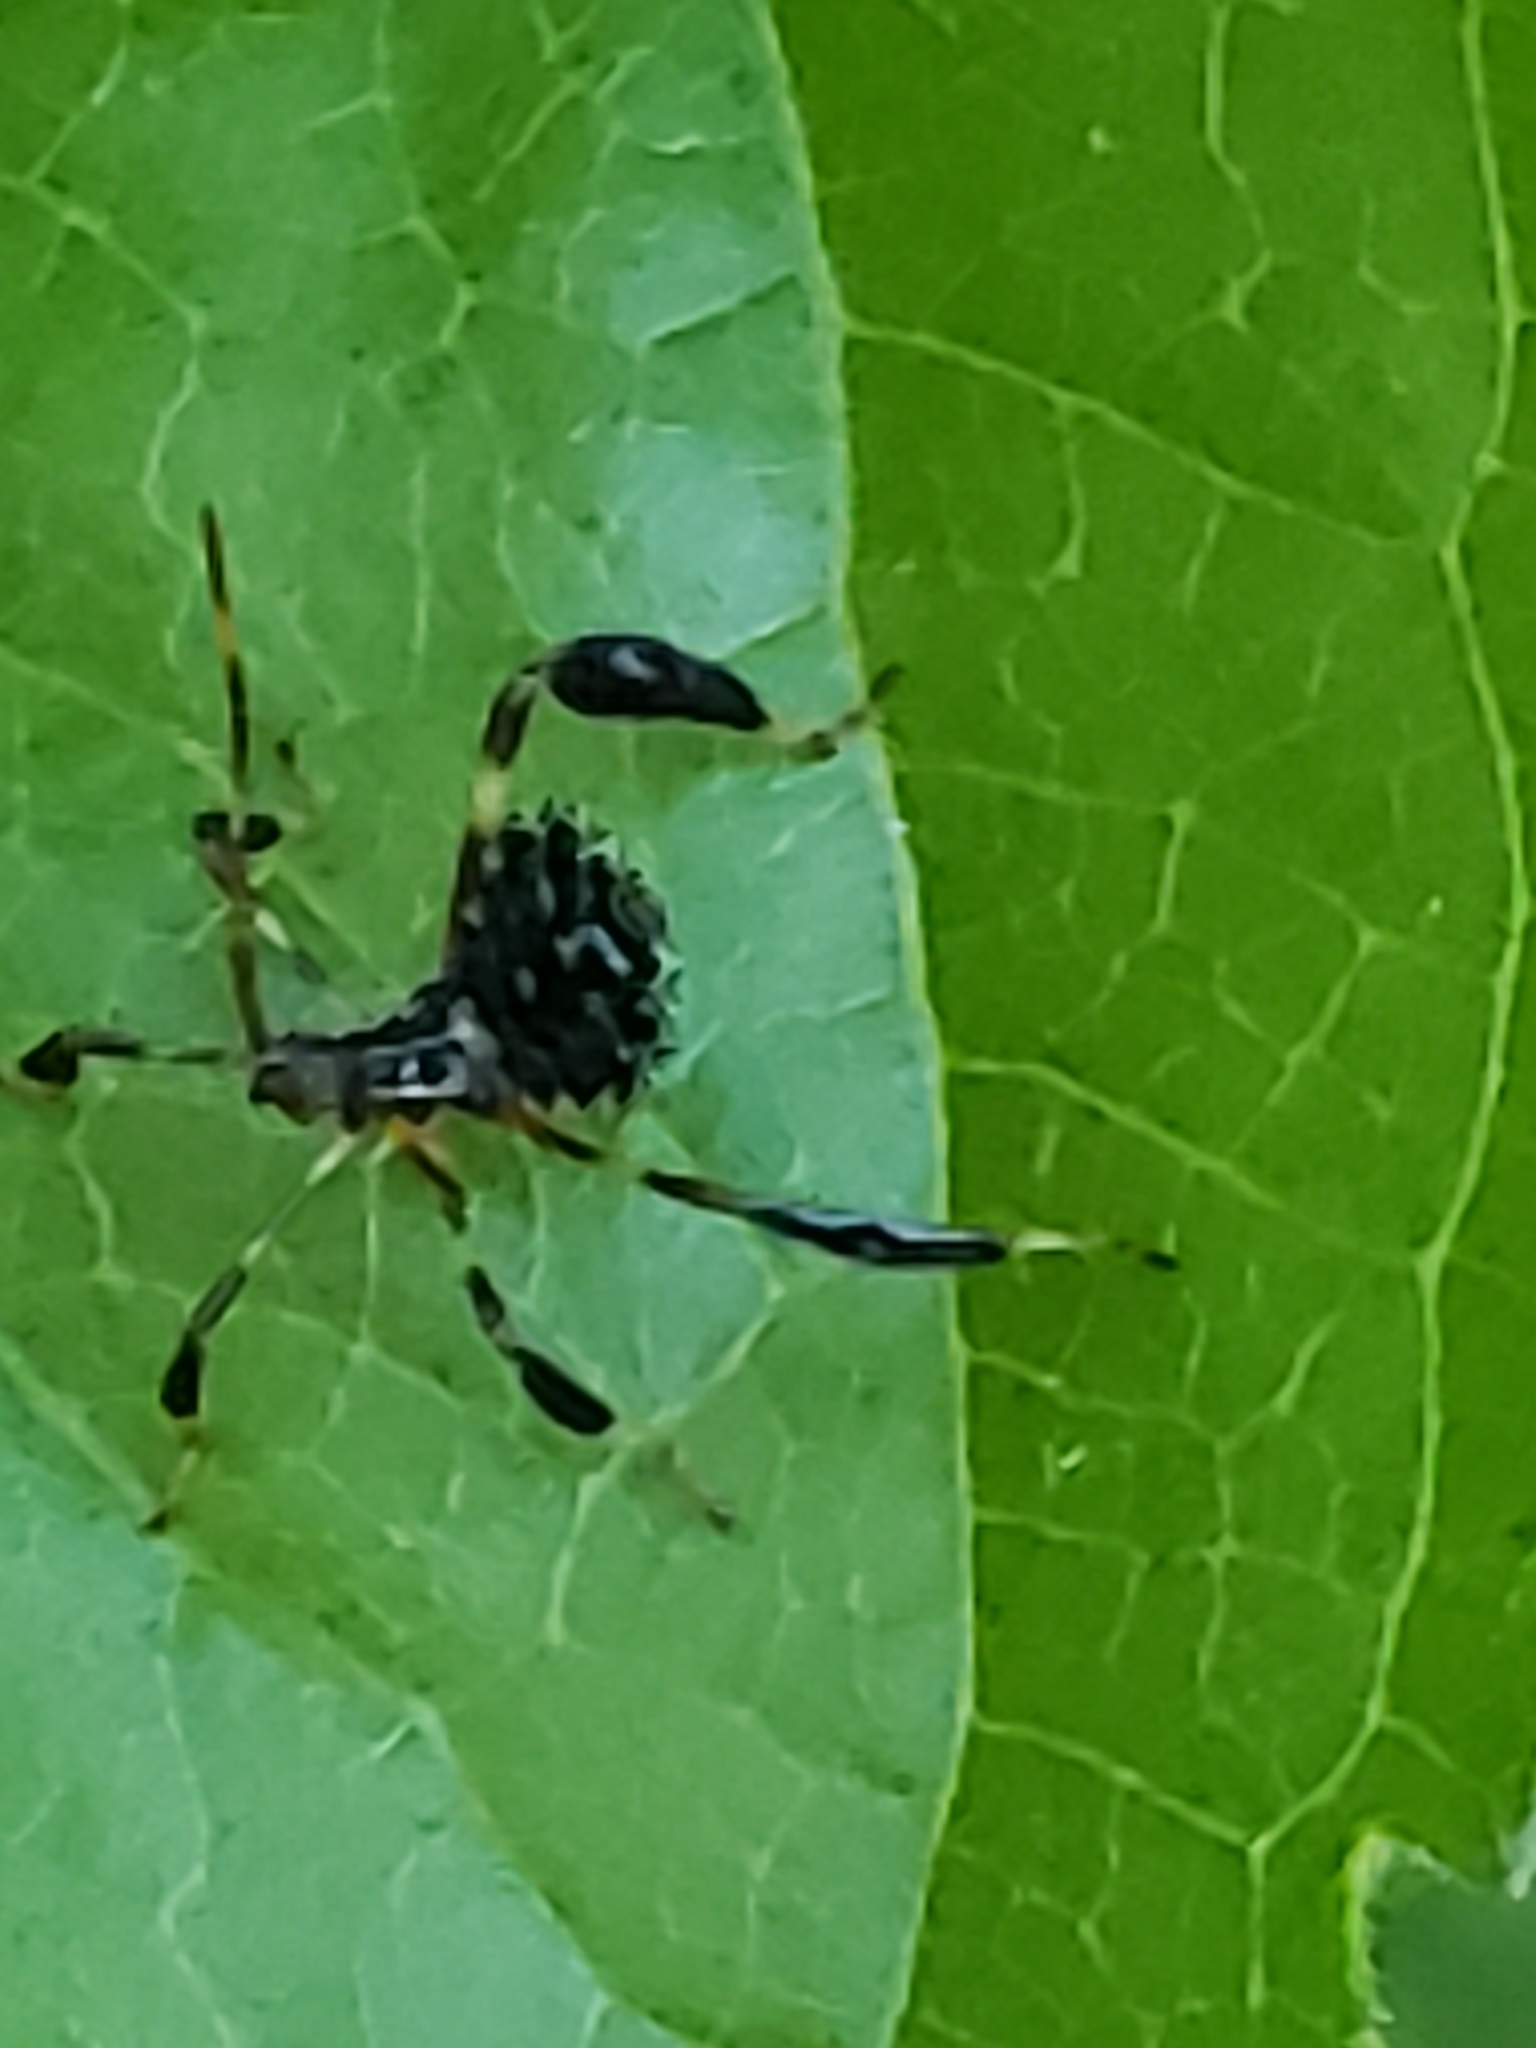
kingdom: Animalia
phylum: Arthropoda
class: Insecta
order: Hemiptera
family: Coreidae
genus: Acanthocephala
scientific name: Acanthocephala terminalis
